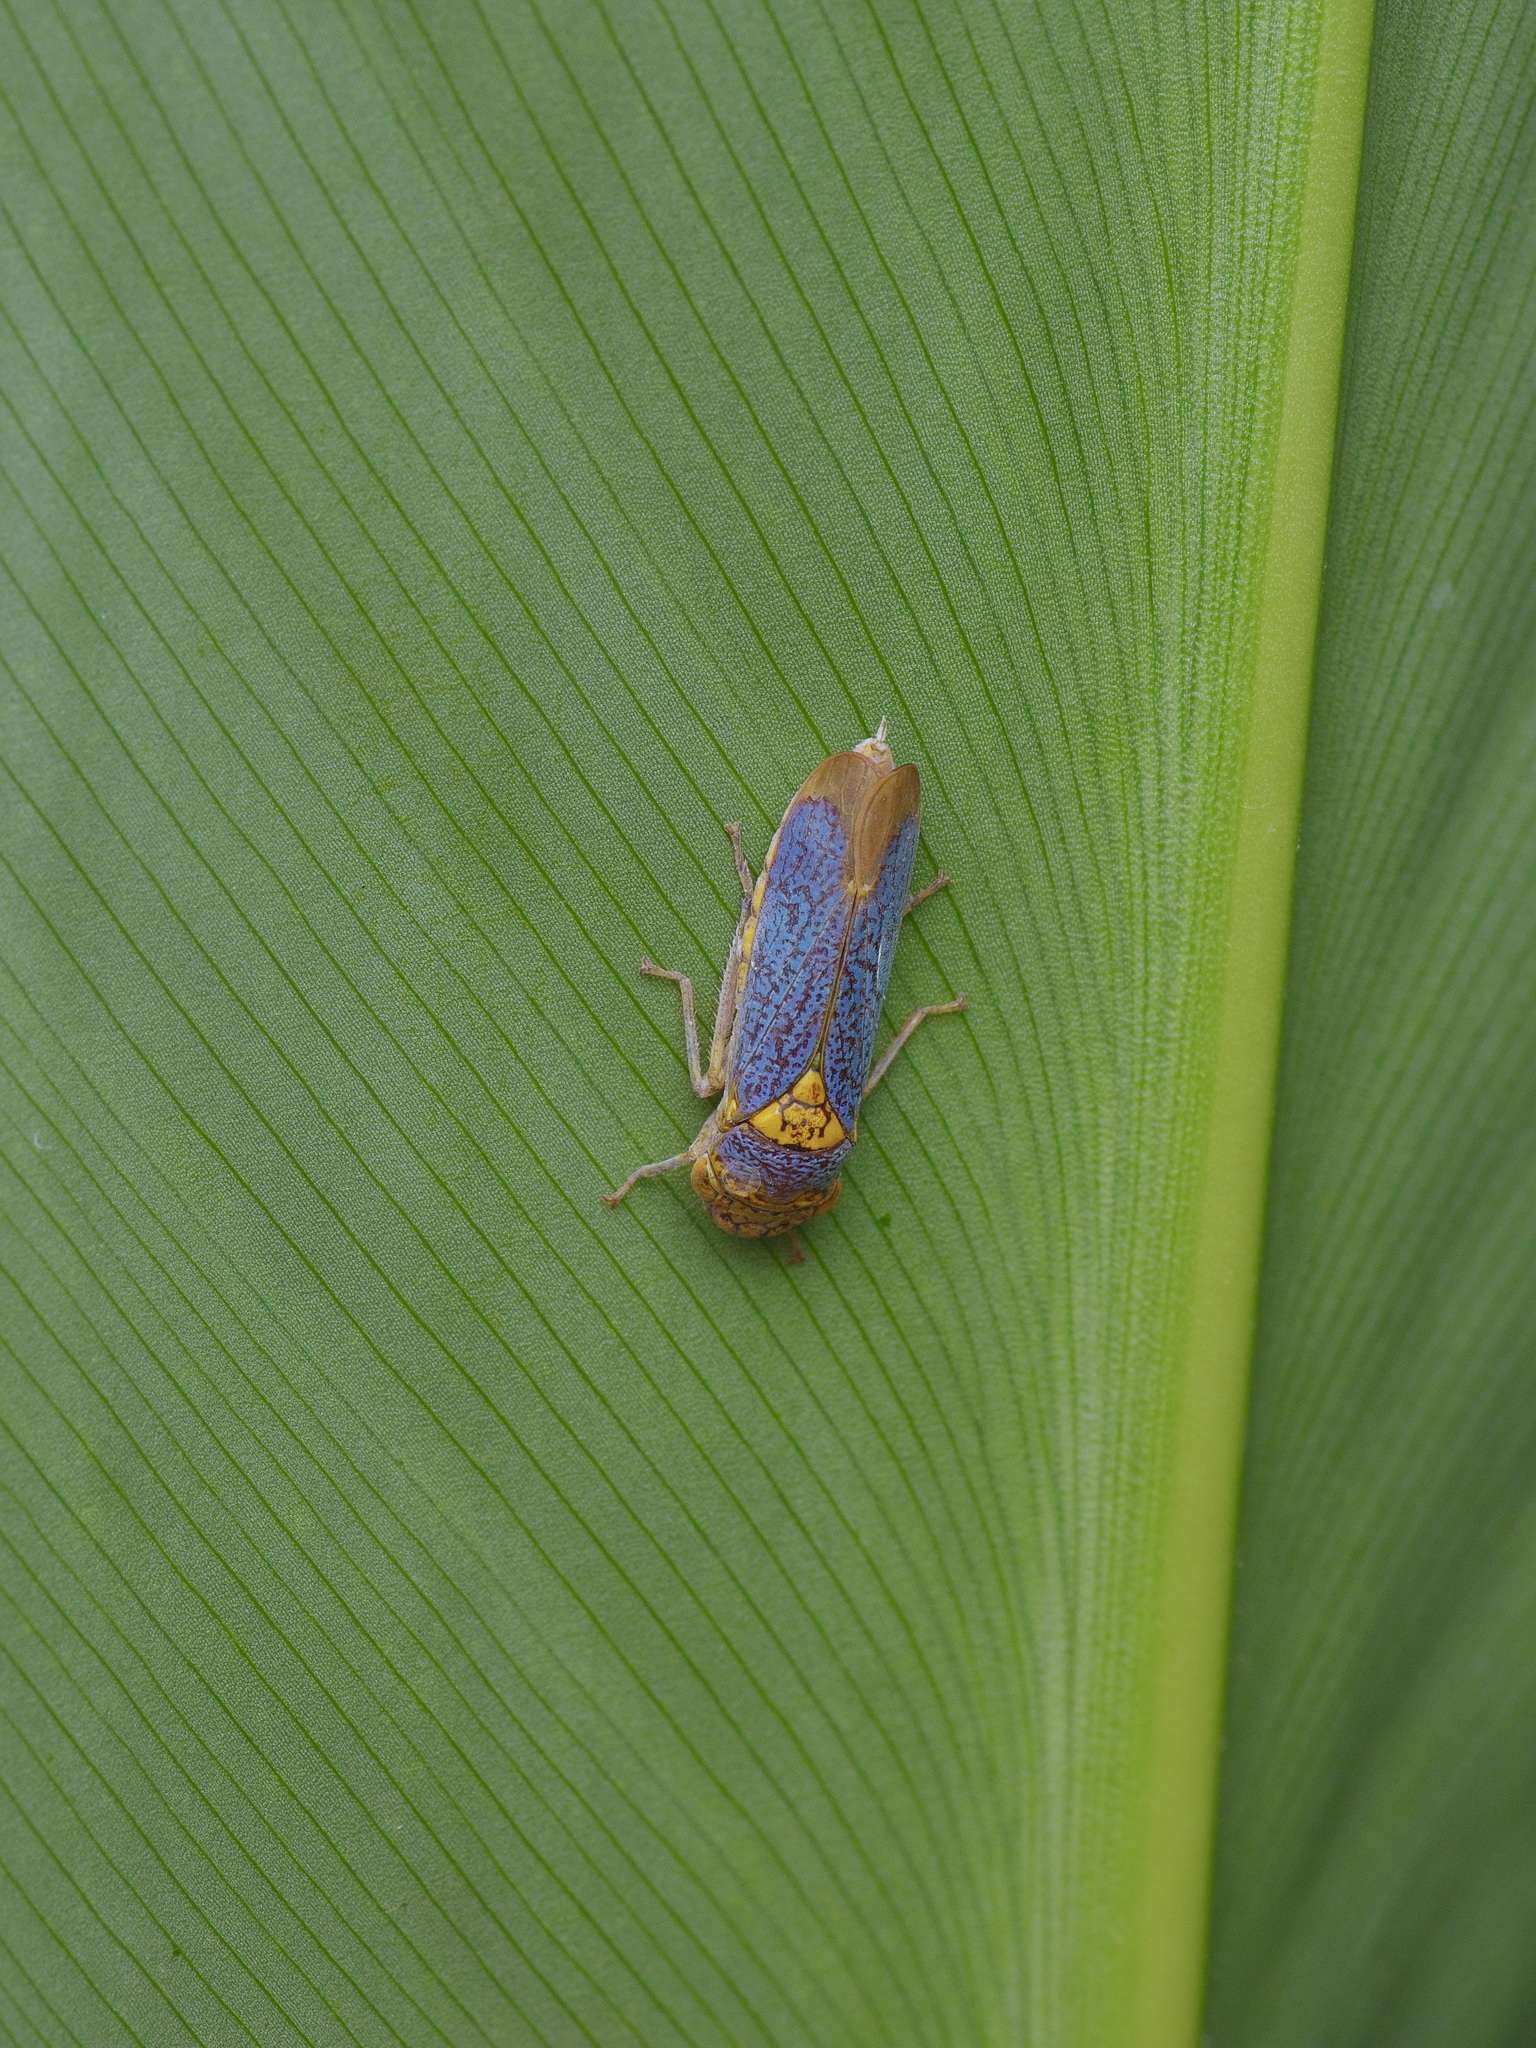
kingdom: Animalia
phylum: Arthropoda
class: Insecta
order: Hemiptera
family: Cicadellidae
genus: Oncometopia
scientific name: Oncometopia orbona
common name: Broad-headed sharpshooter
